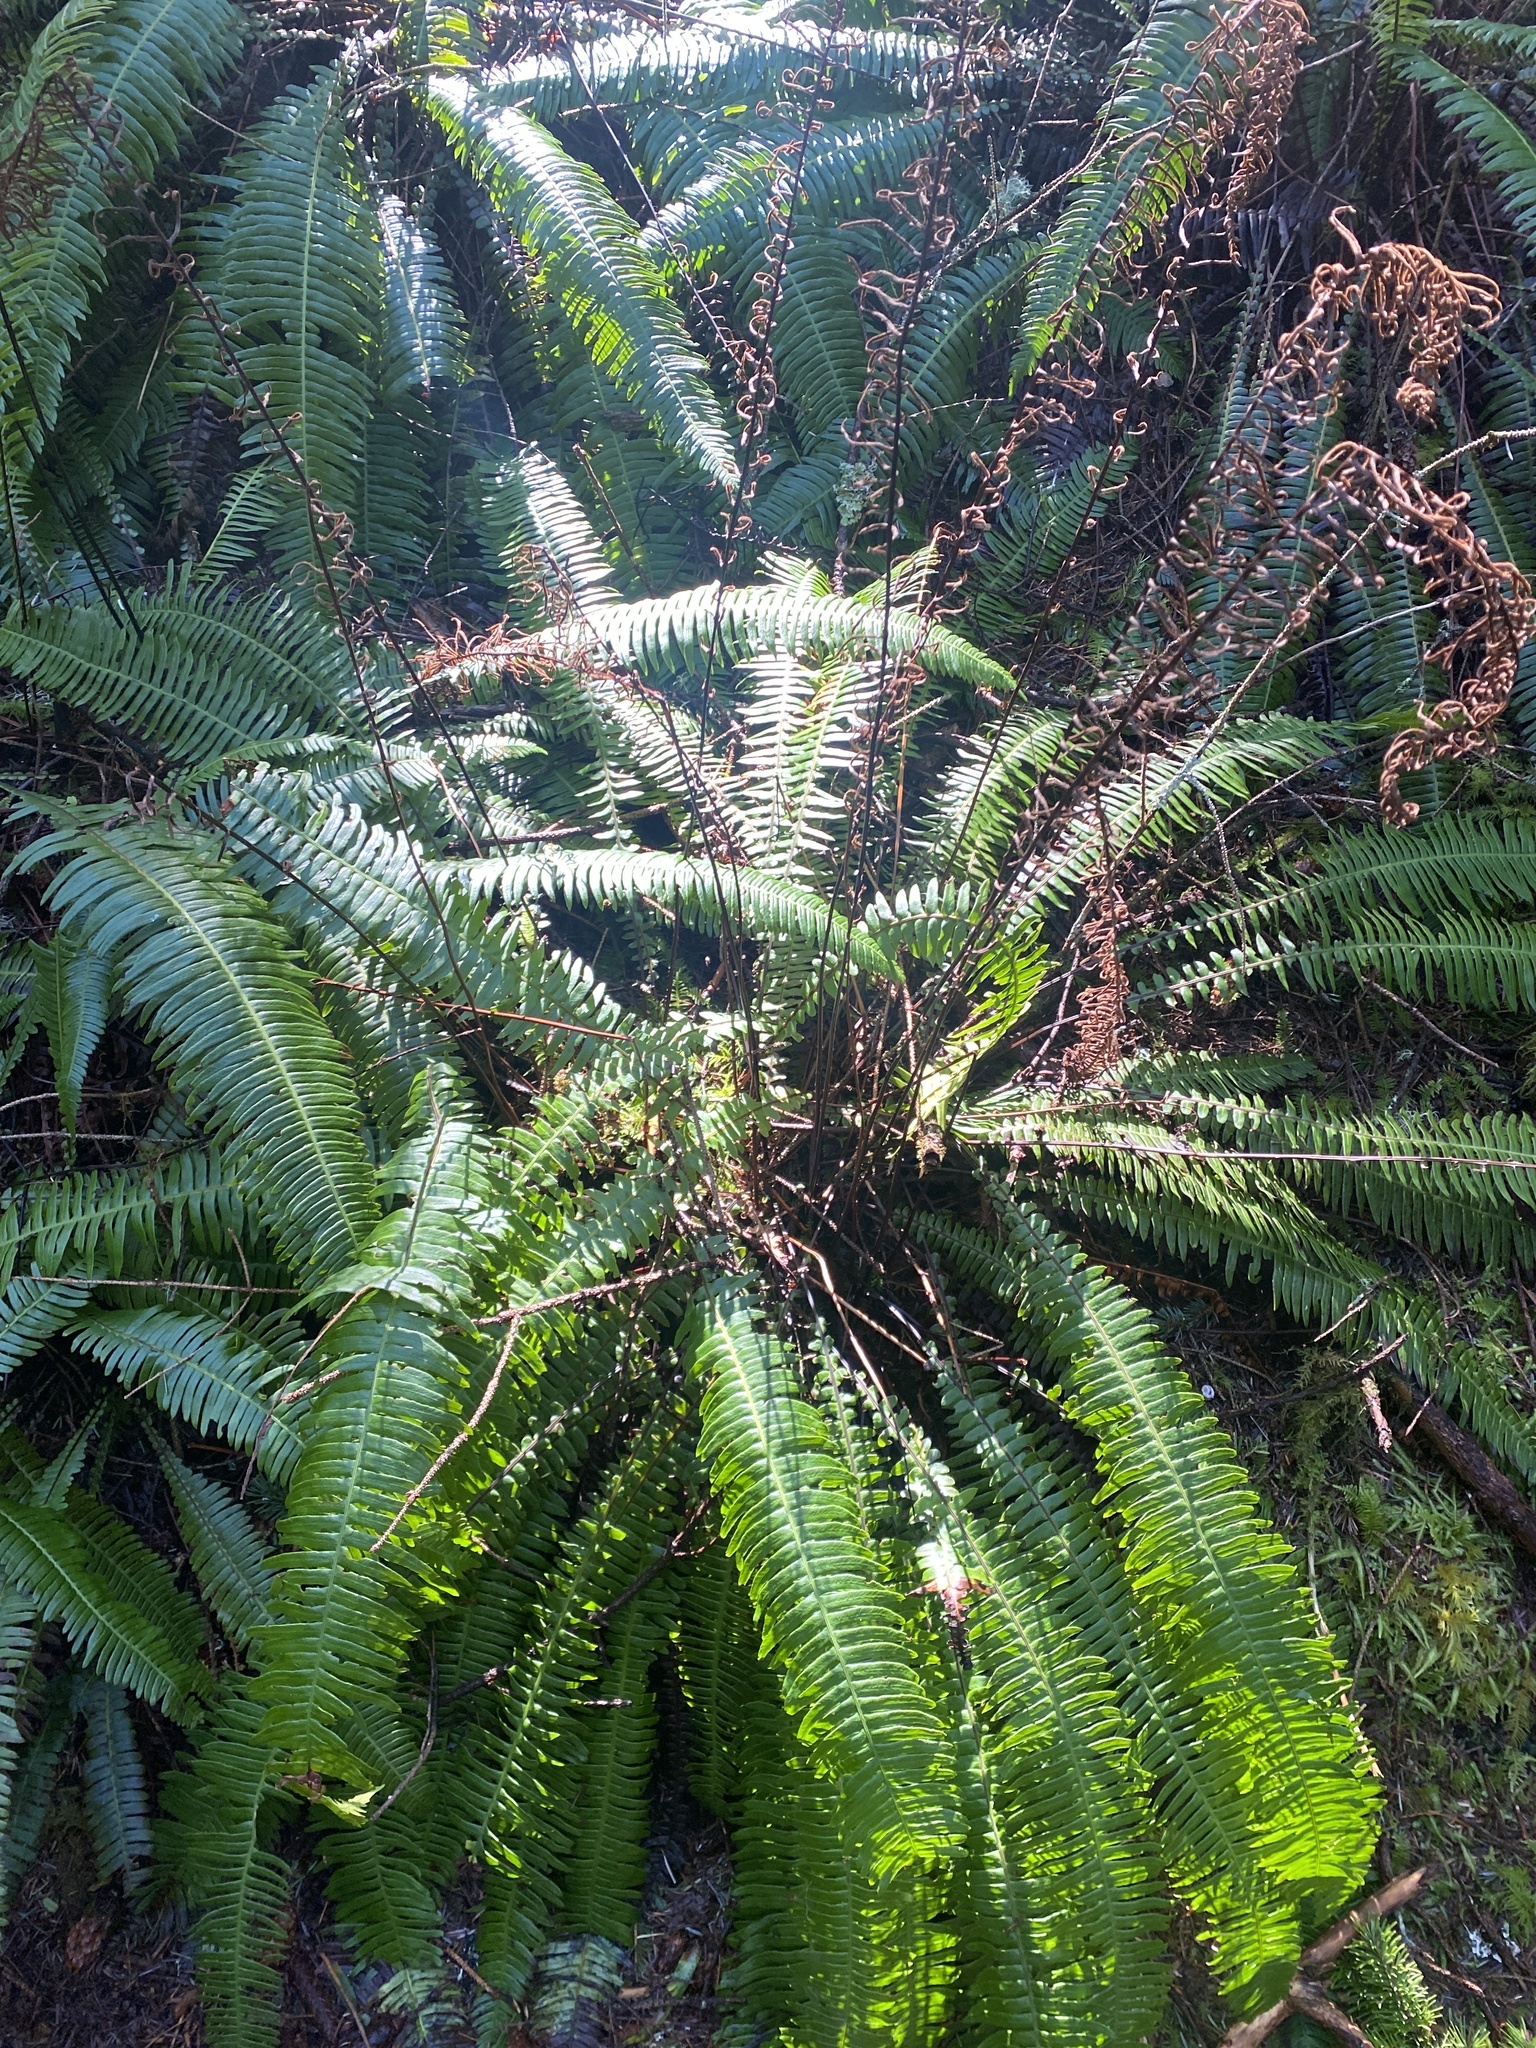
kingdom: Plantae
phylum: Tracheophyta
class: Polypodiopsida
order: Polypodiales
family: Blechnaceae
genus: Struthiopteris
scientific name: Struthiopteris spicant
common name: Deer fern
